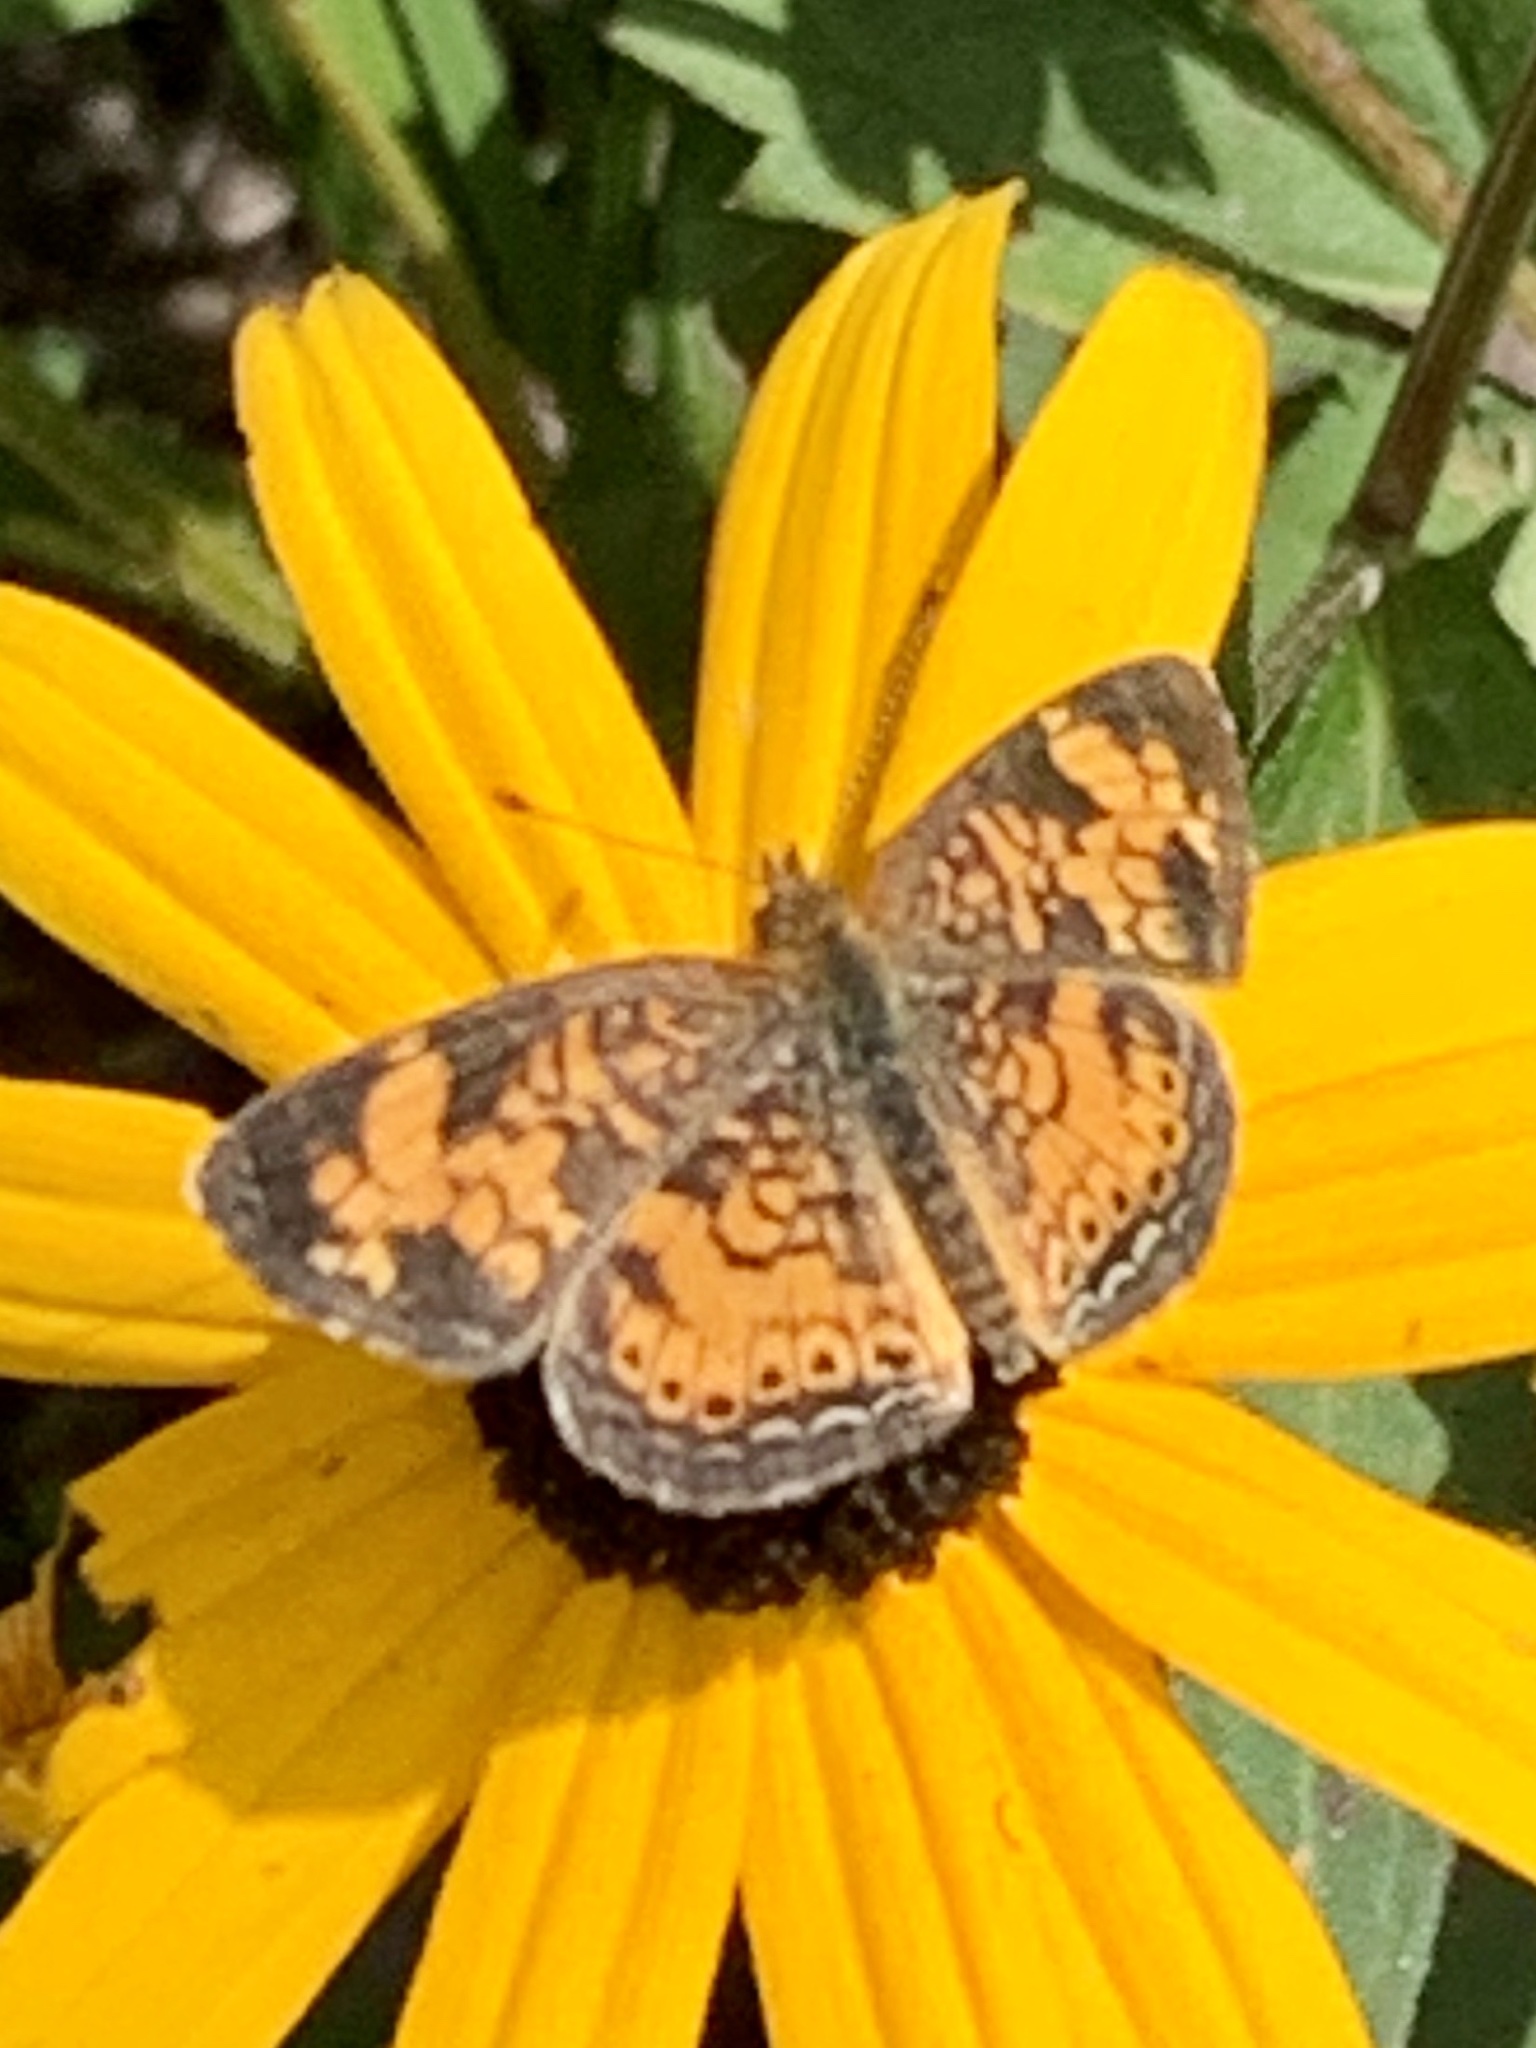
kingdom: Animalia
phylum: Arthropoda
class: Insecta
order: Lepidoptera
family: Nymphalidae
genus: Phyciodes
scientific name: Phyciodes tharos
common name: Pearl crescent
